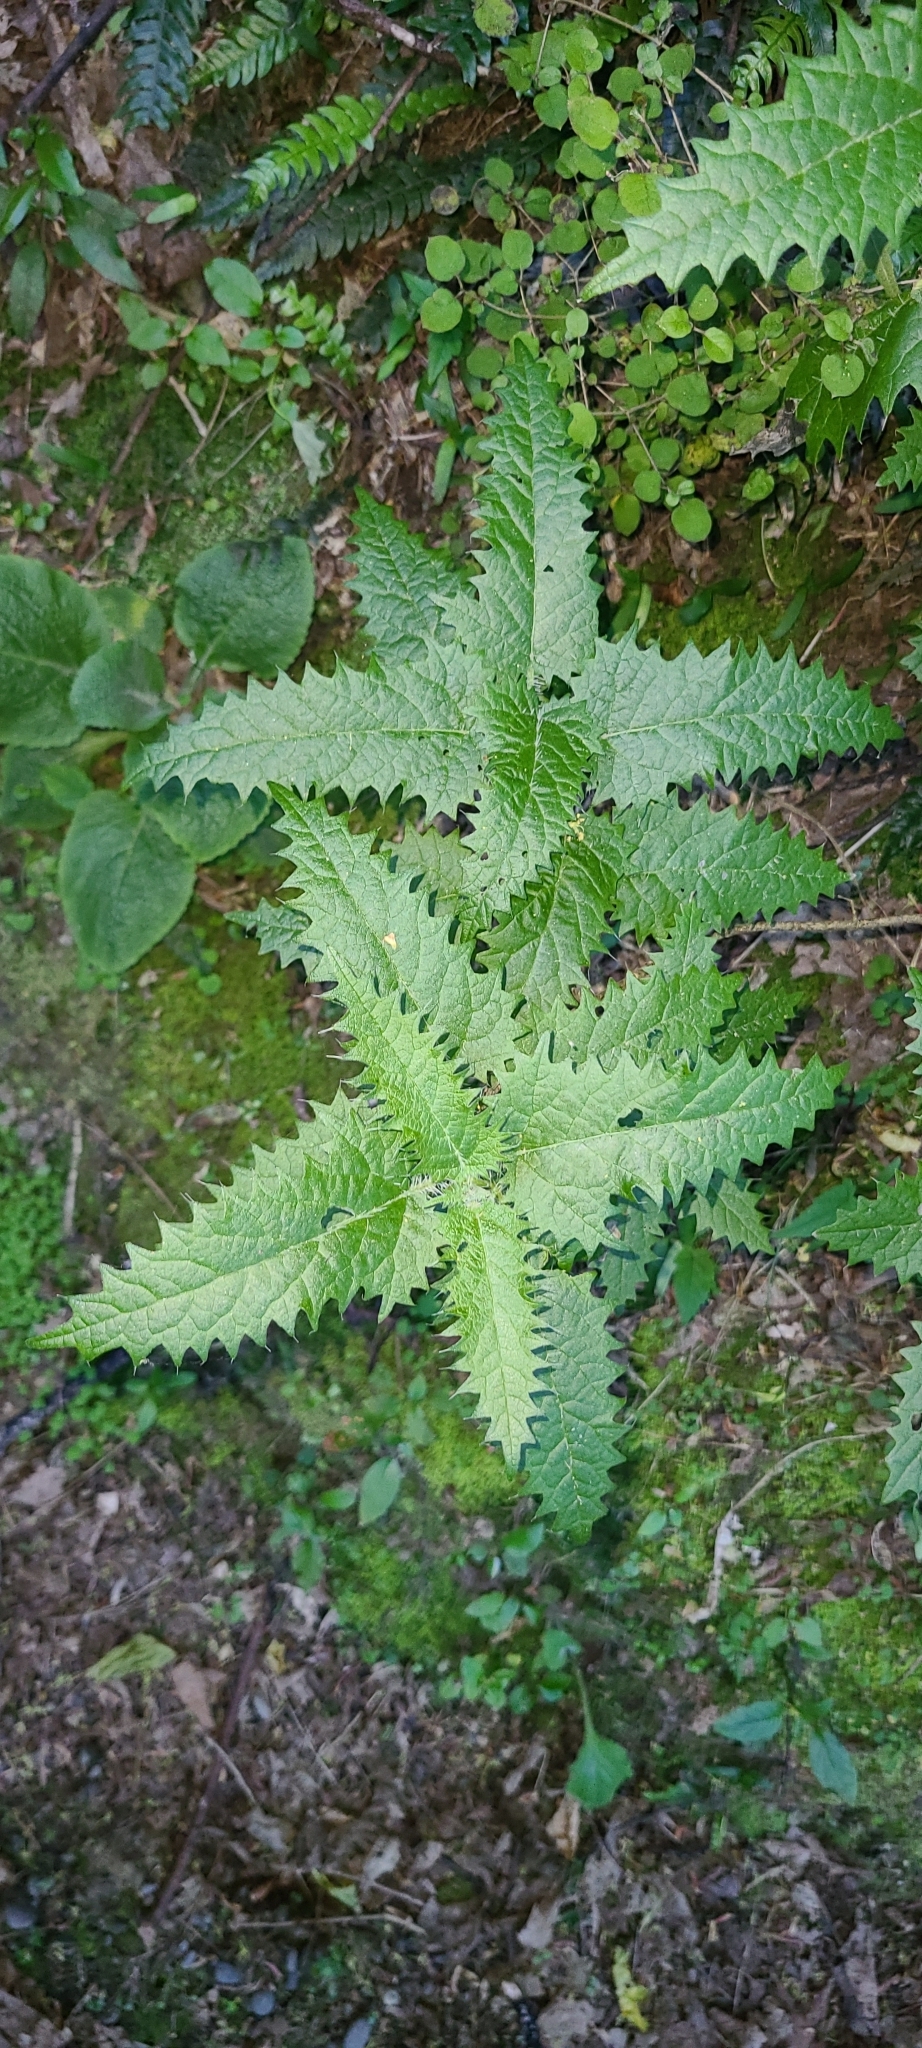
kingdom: Plantae
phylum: Tracheophyta
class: Magnoliopsida
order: Rosales
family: Urticaceae
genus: Urtica
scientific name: Urtica ferox
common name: Tree nettle
